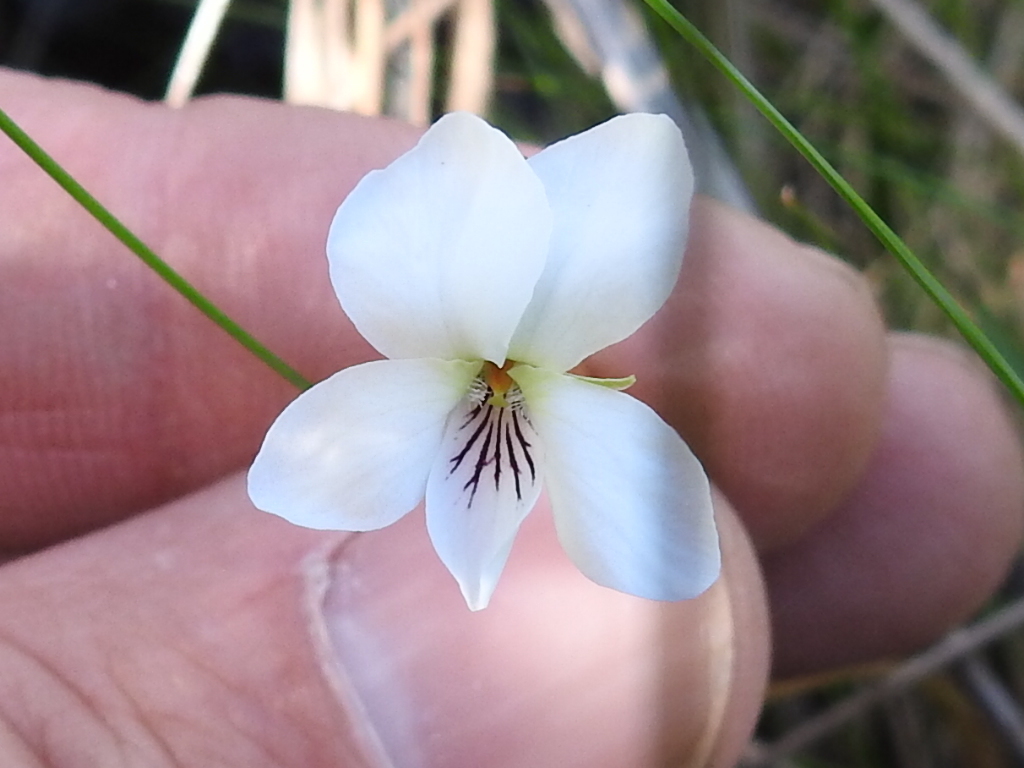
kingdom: Plantae
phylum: Tracheophyta
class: Magnoliopsida
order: Malpighiales
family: Violaceae
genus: Viola
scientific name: Viola primulifolia
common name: Primrose-leaf violet
